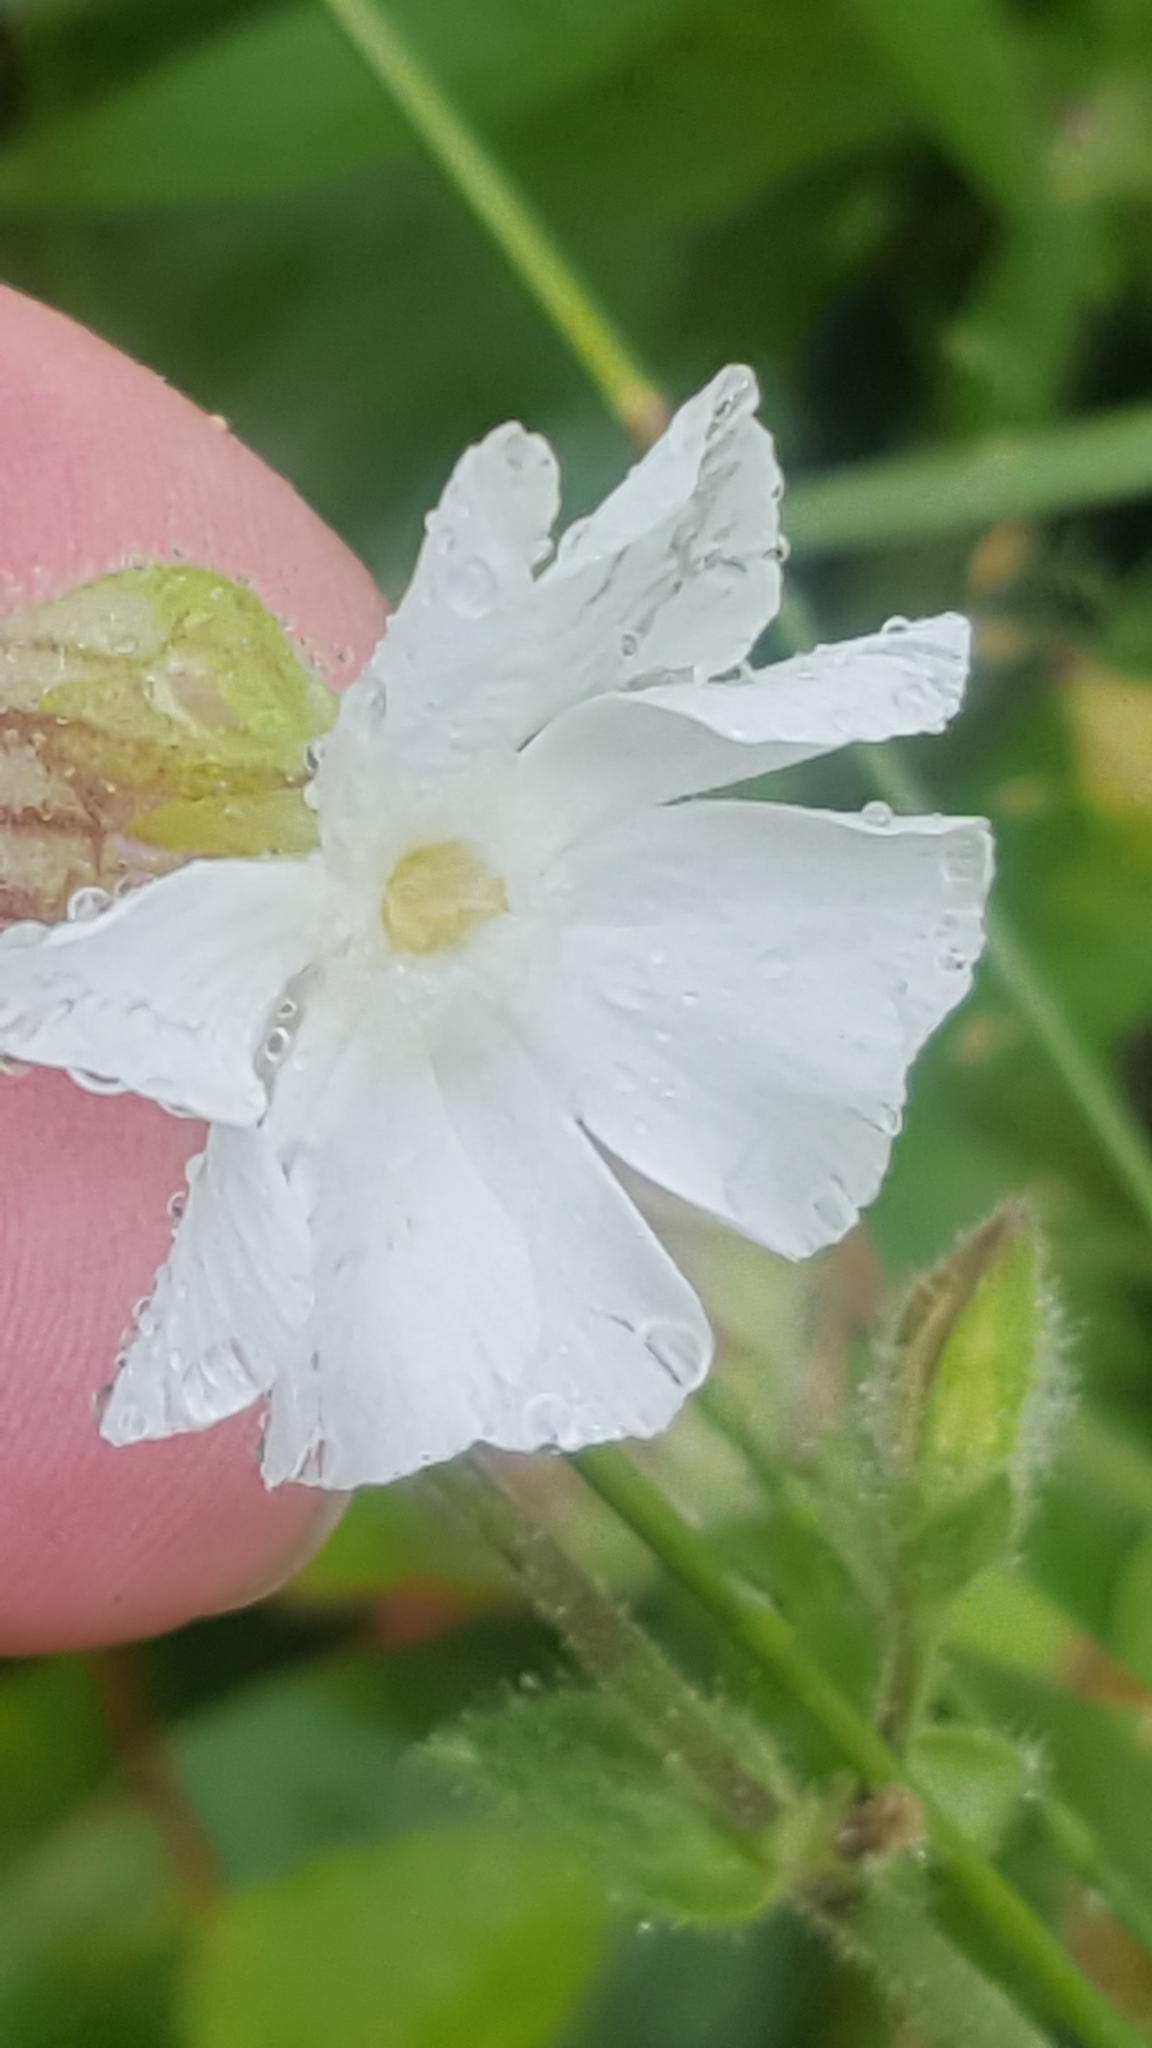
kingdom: Plantae
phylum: Tracheophyta
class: Magnoliopsida
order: Caryophyllales
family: Caryophyllaceae
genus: Silene
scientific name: Silene latifolia
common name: White campion
